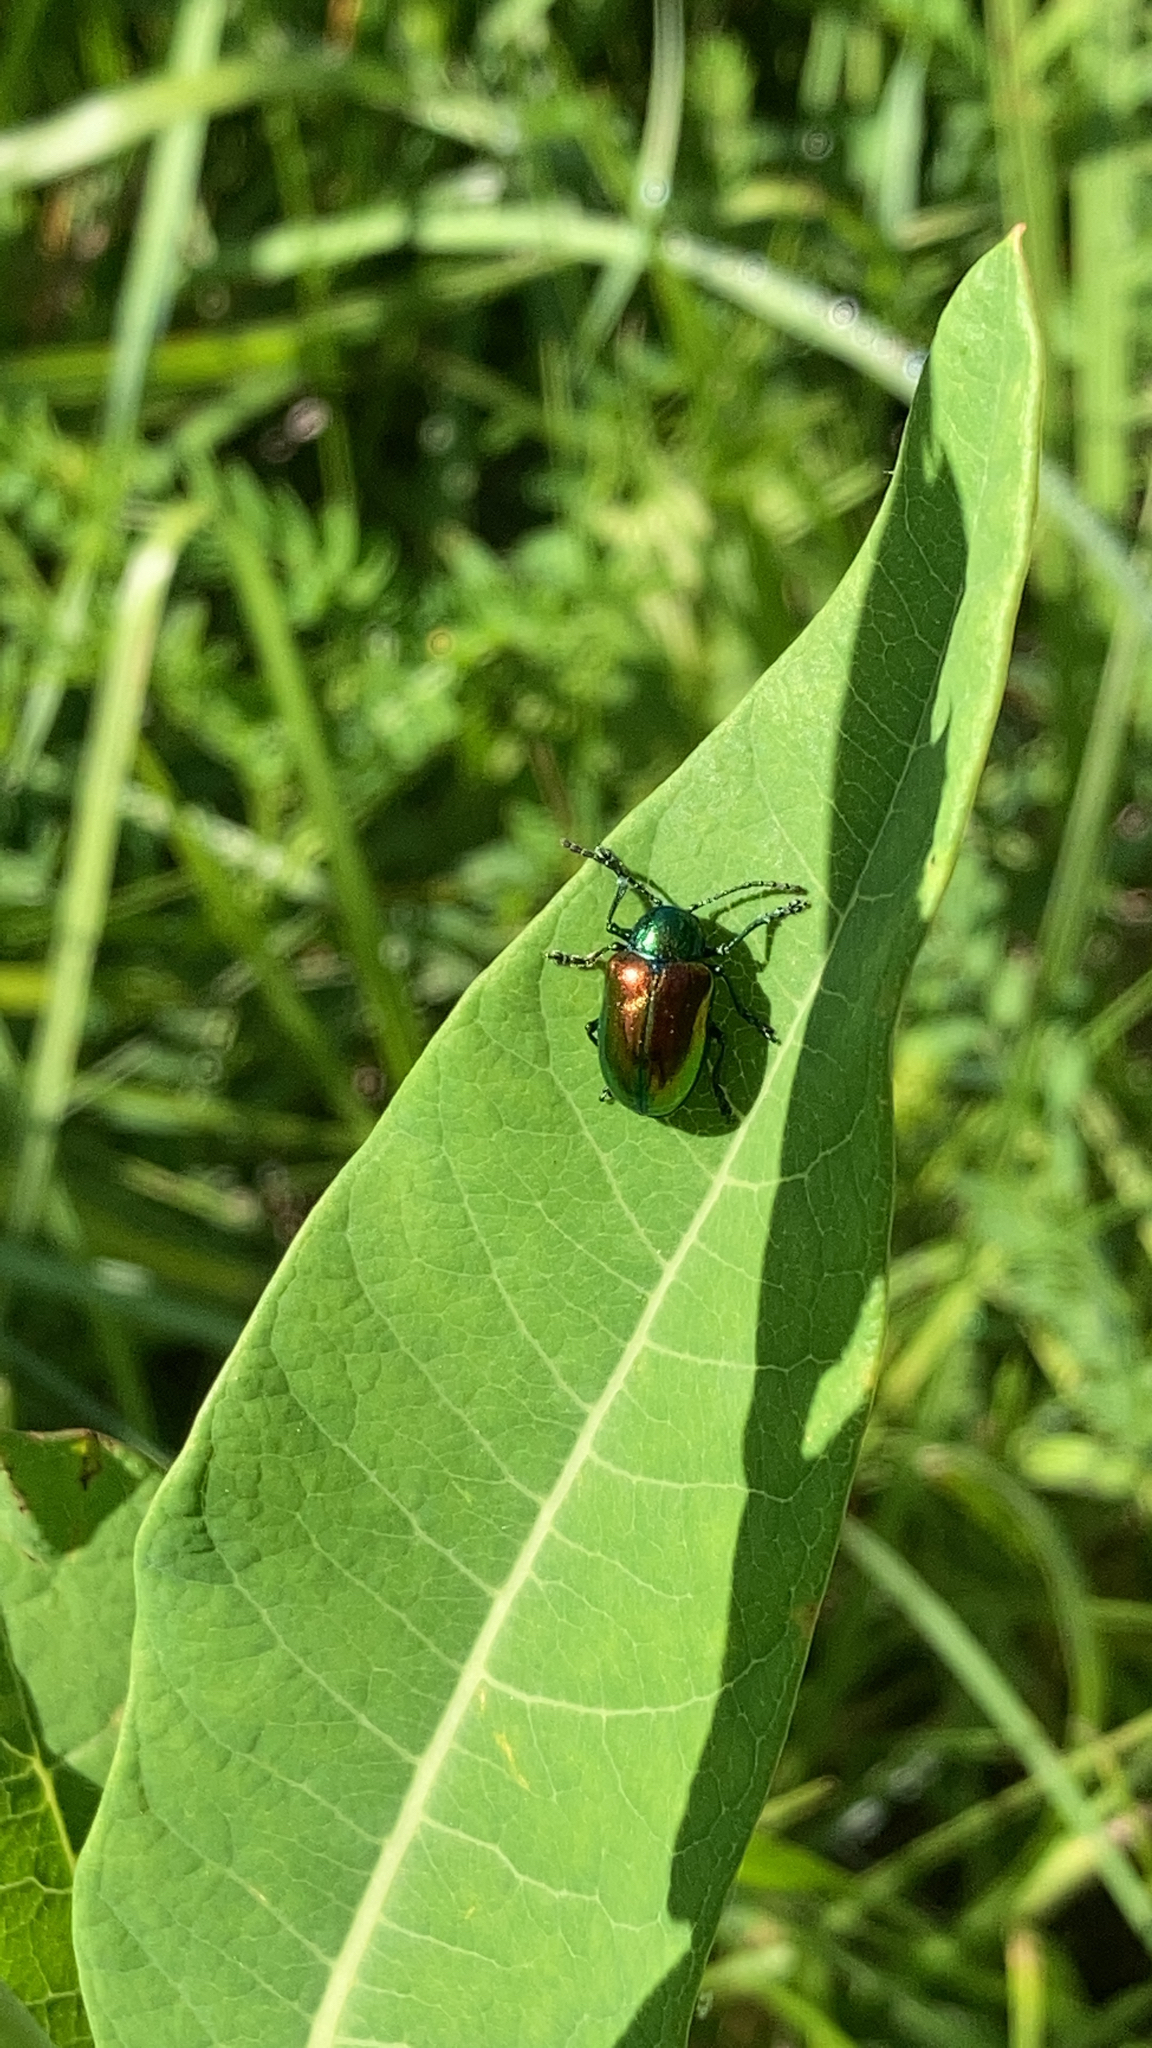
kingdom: Animalia
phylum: Arthropoda
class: Insecta
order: Coleoptera
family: Chrysomelidae
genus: Chrysochus
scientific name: Chrysochus auratus
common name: Dogbane leaf beetle
